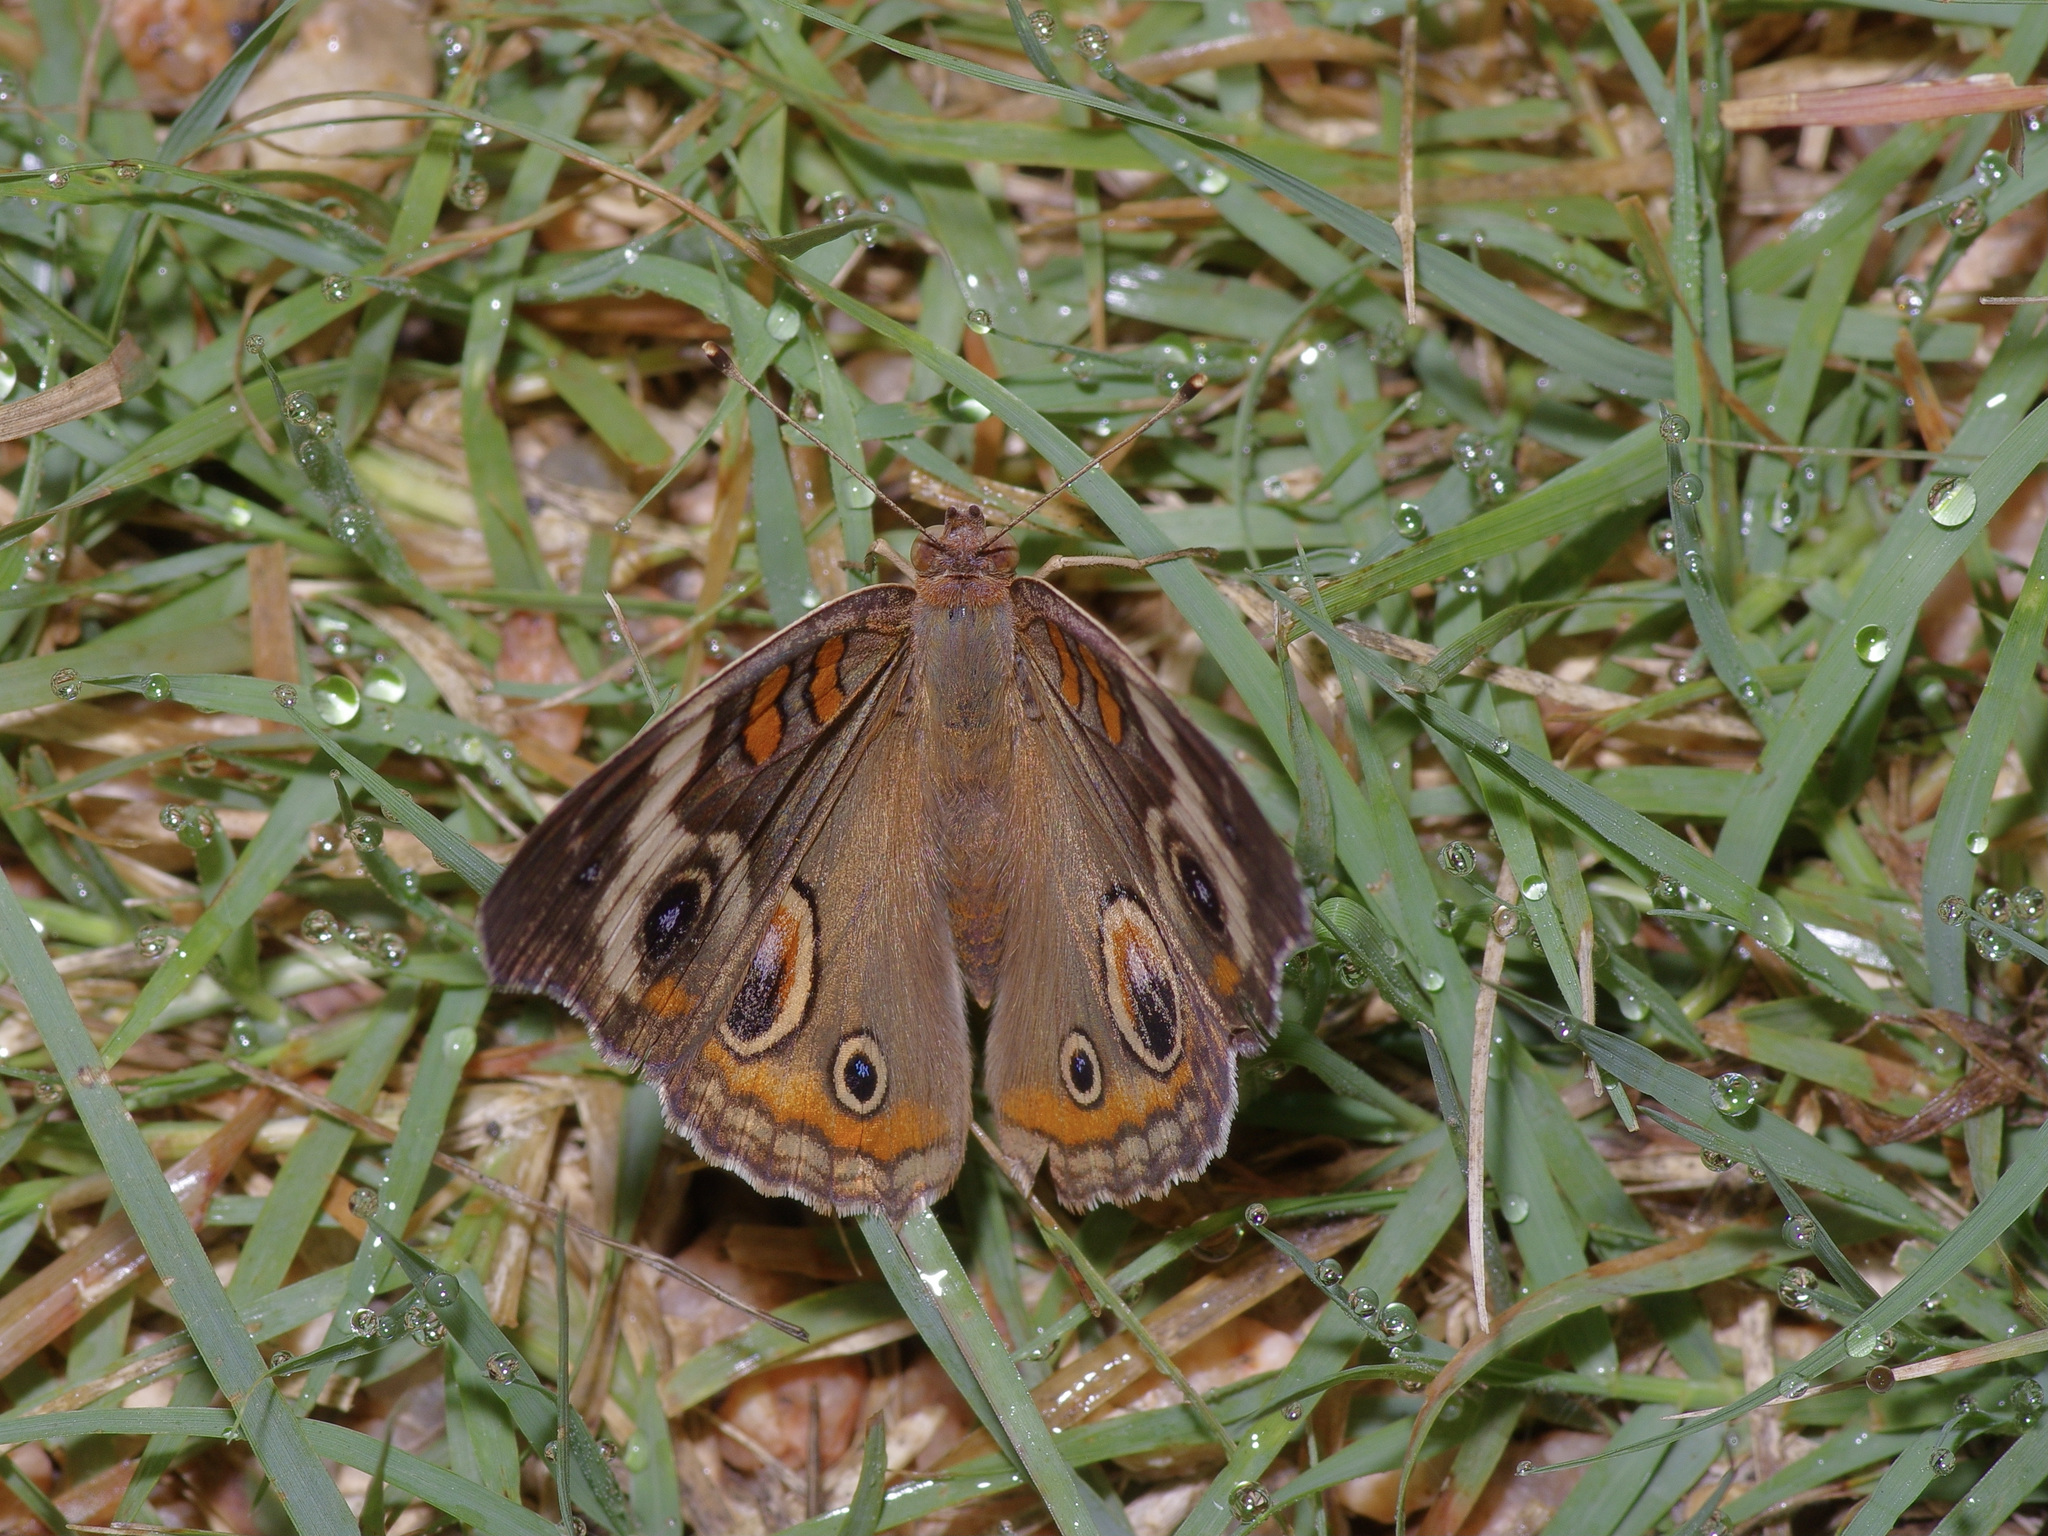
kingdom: Animalia
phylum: Arthropoda
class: Insecta
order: Lepidoptera
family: Nymphalidae
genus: Junonia
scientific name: Junonia coenia
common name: Common buckeye
